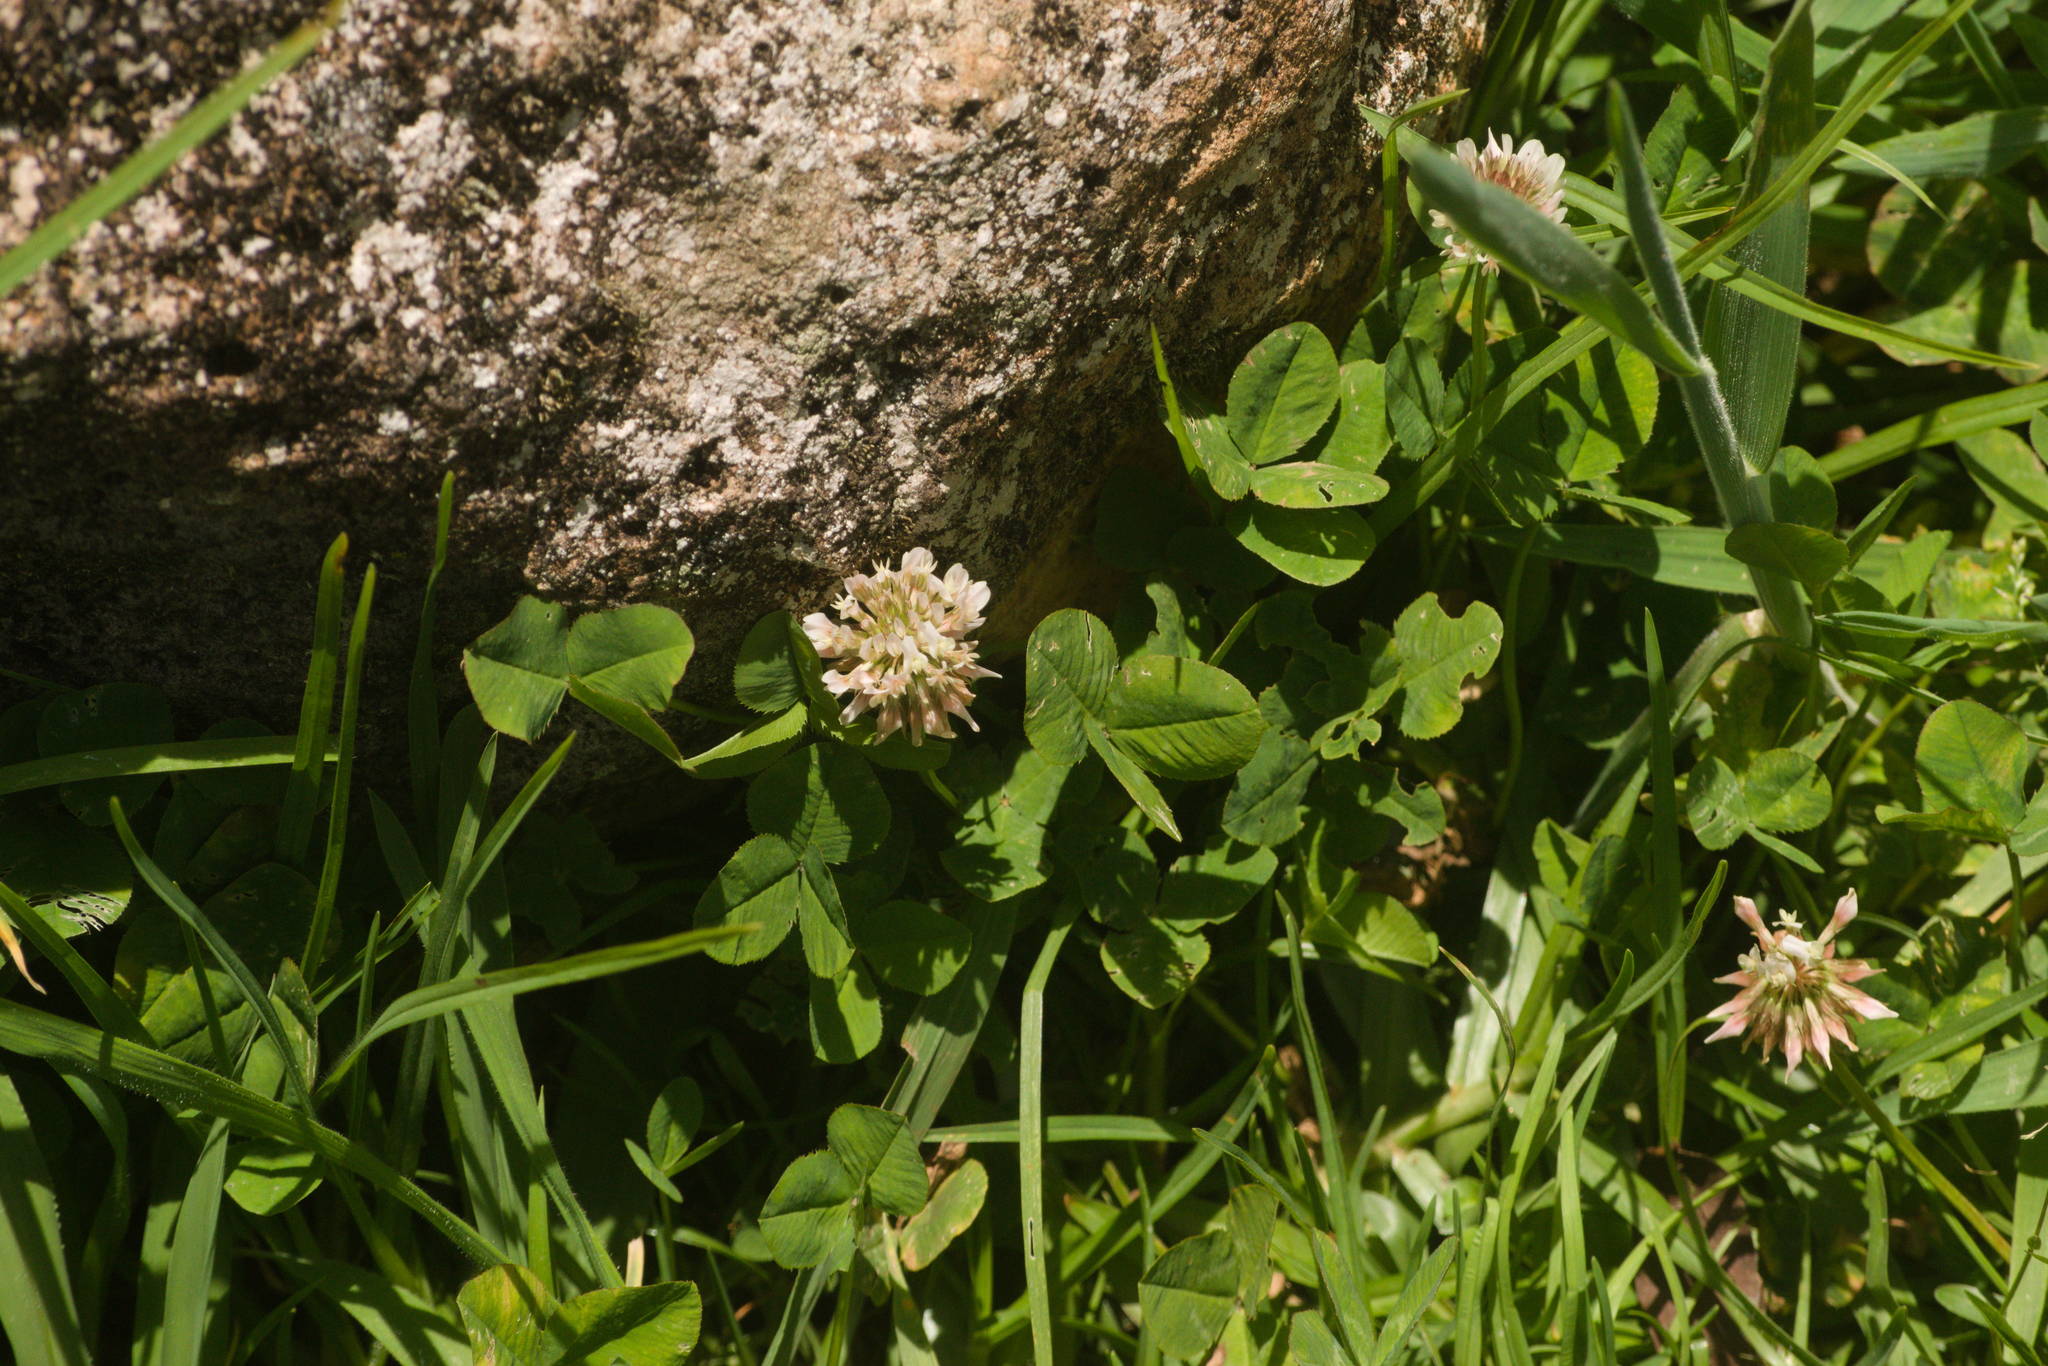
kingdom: Plantae
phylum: Tracheophyta
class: Magnoliopsida
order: Fabales
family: Fabaceae
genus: Trifolium
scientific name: Trifolium repens
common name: White clover
